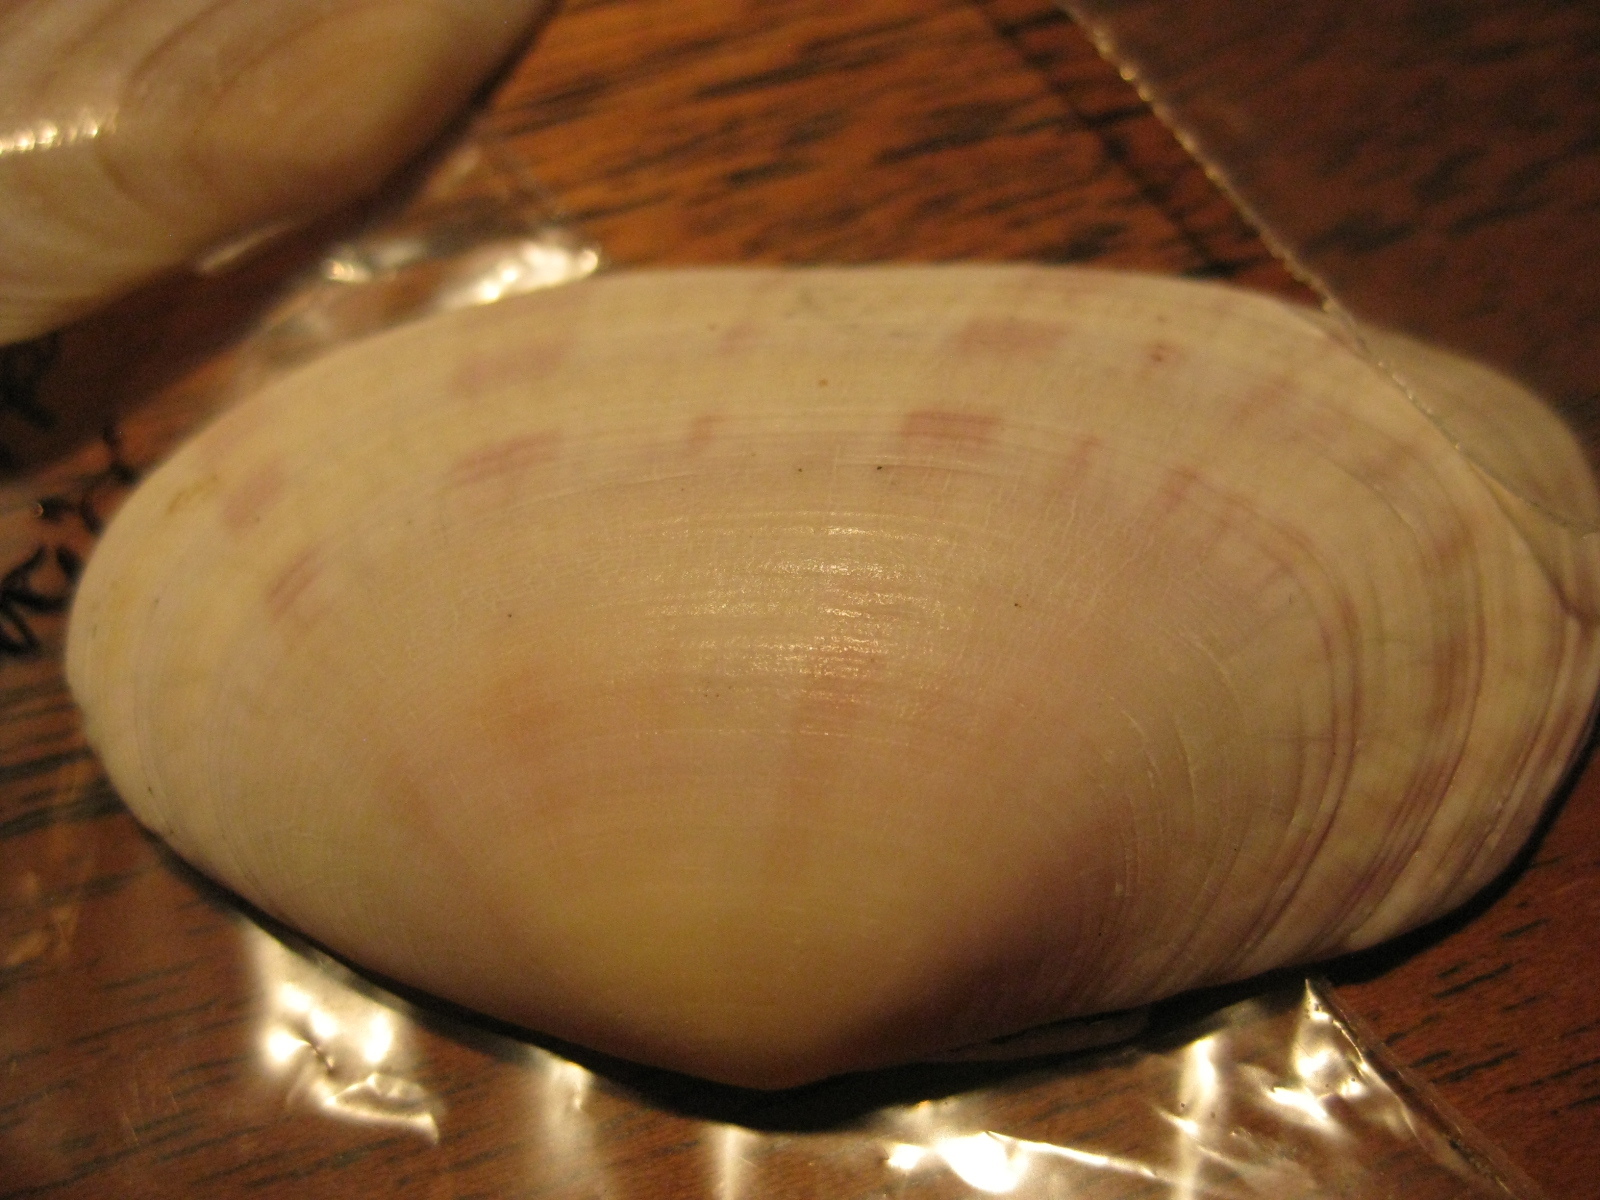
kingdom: Animalia
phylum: Mollusca
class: Bivalvia
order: Cardiida
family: Psammobiidae
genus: Gari
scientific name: Gari stangeri
